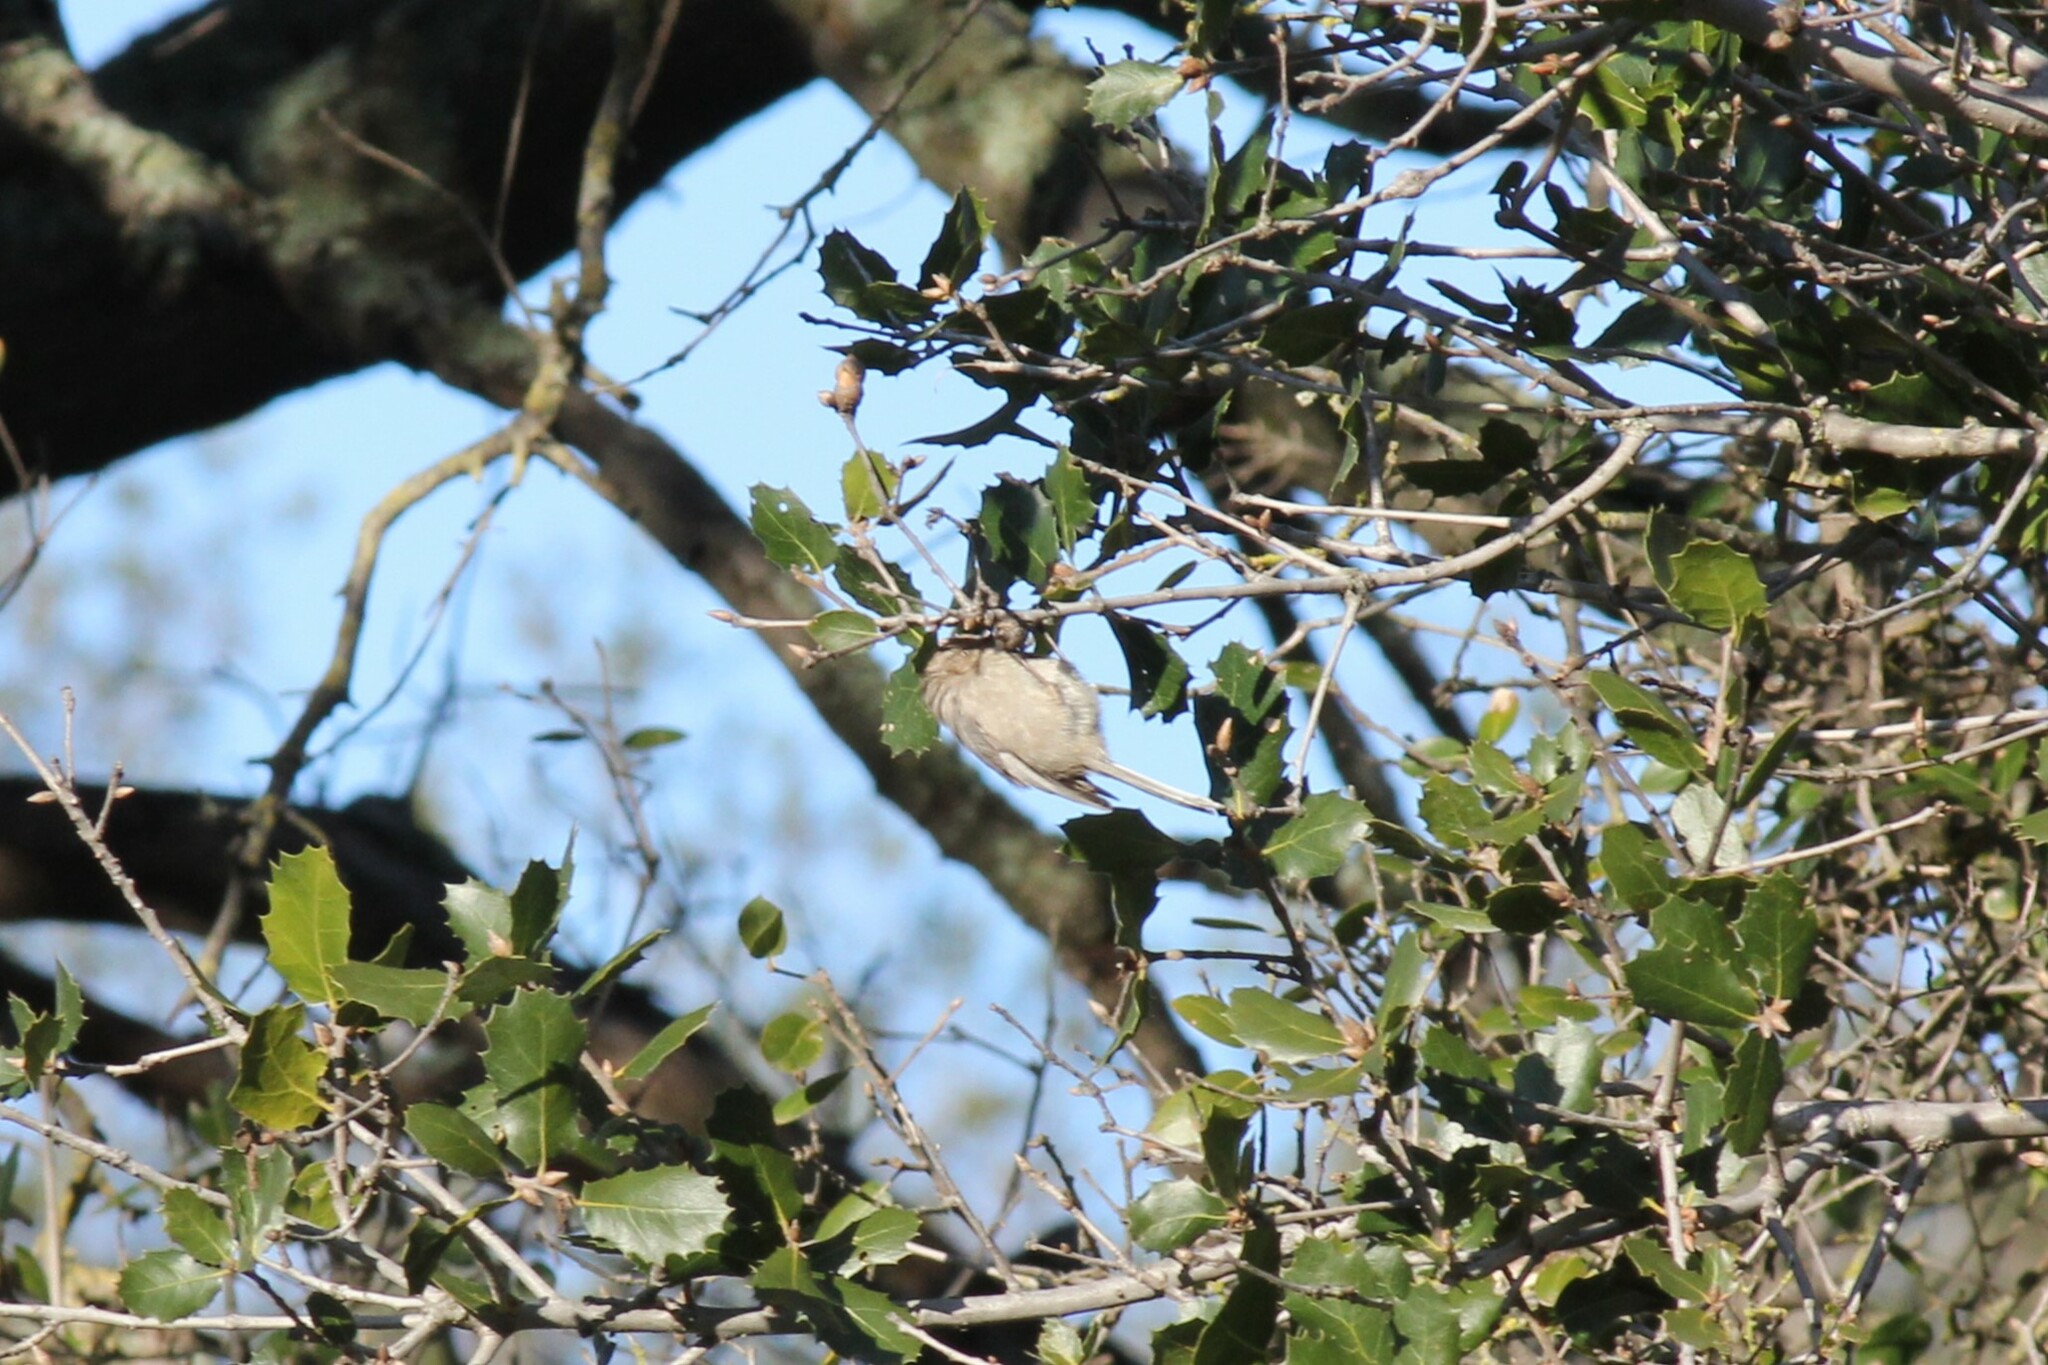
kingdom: Animalia
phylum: Chordata
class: Aves
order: Passeriformes
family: Aegithalidae
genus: Psaltriparus
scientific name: Psaltriparus minimus
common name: American bushtit
